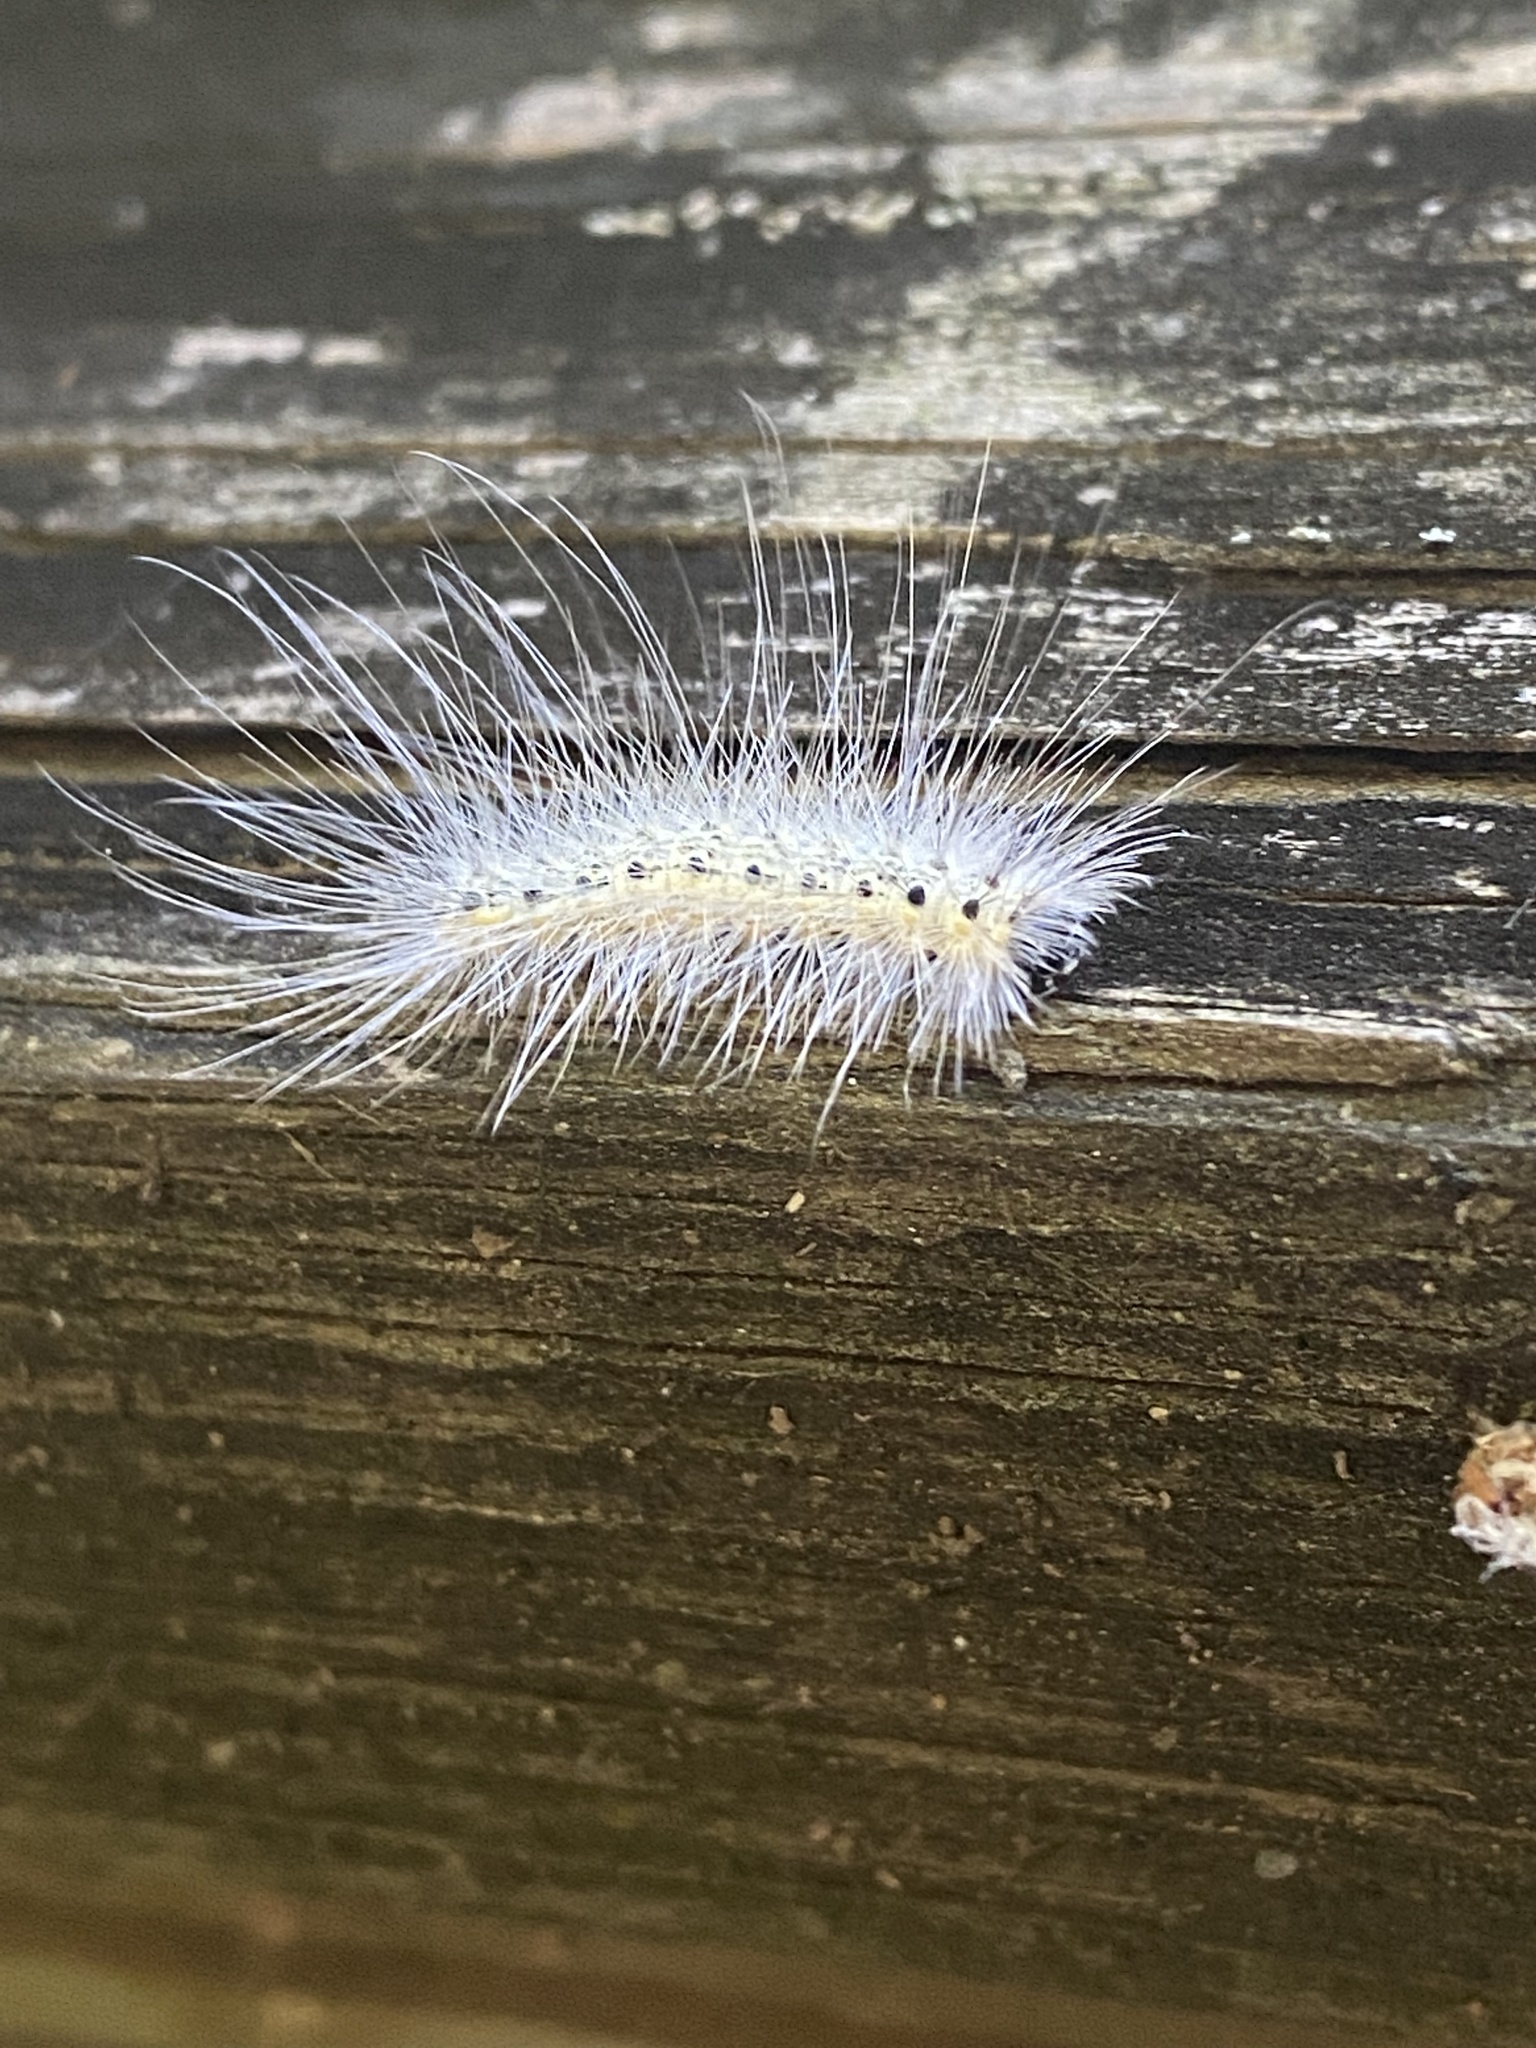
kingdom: Animalia
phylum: Arthropoda
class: Insecta
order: Lepidoptera
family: Erebidae
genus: Hyphantria
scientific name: Hyphantria cunea
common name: American white moth
